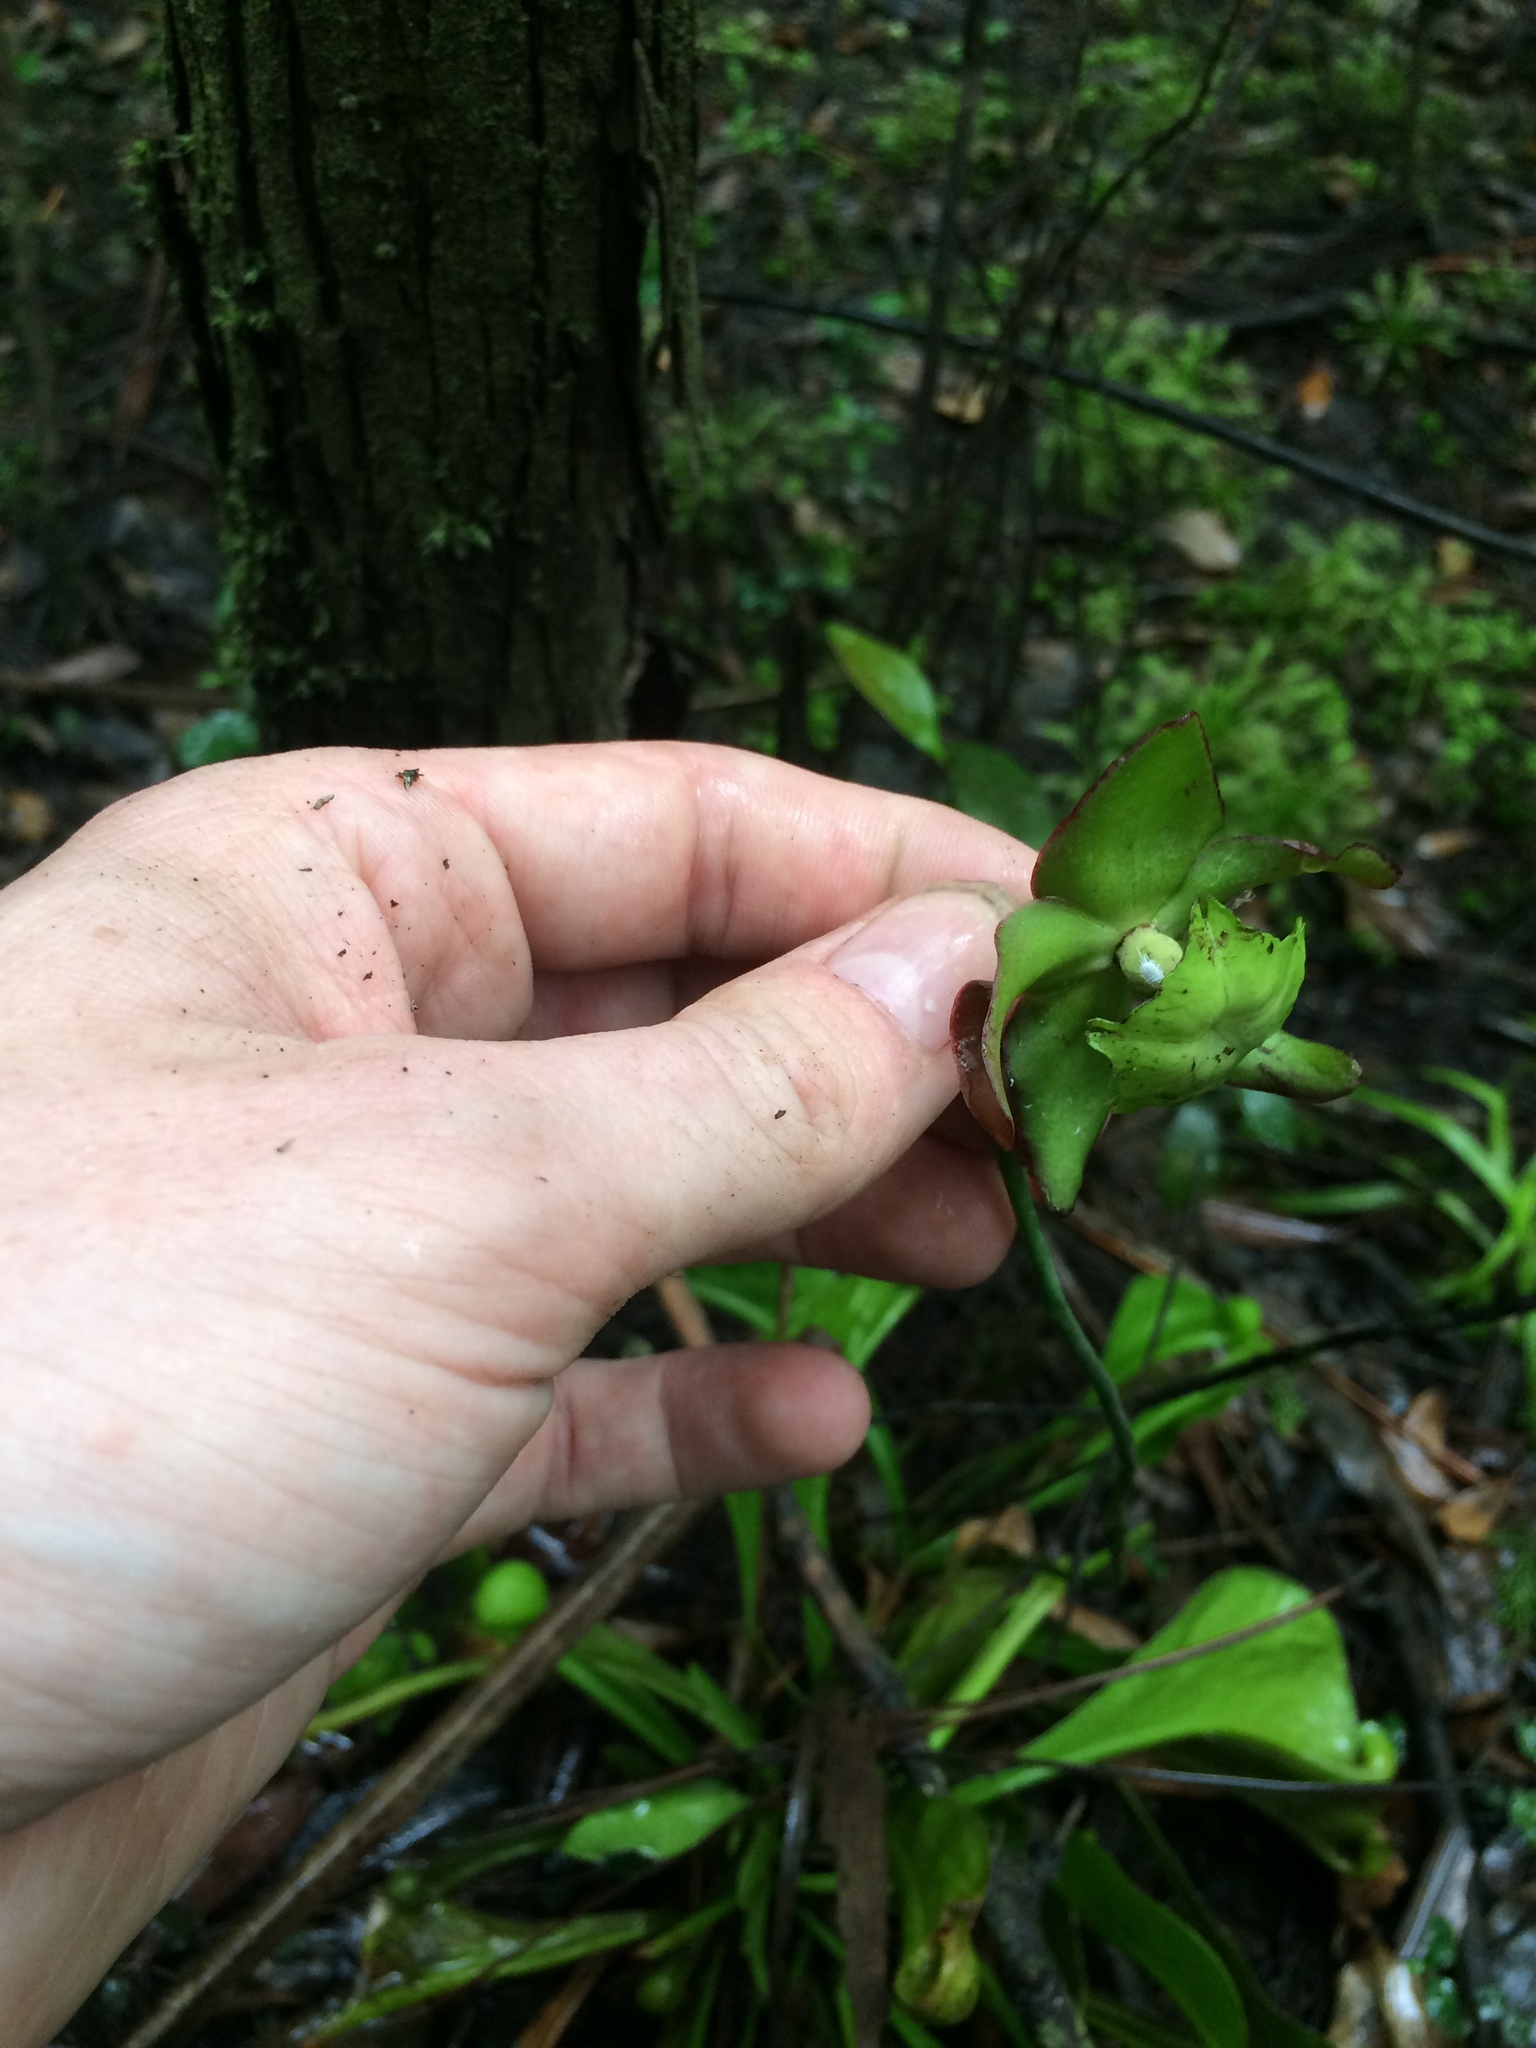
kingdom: Plantae
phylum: Tracheophyta
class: Magnoliopsida
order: Ericales
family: Sarraceniaceae
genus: Sarracenia
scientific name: Sarracenia psittacina
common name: Parrot pitcherplant
